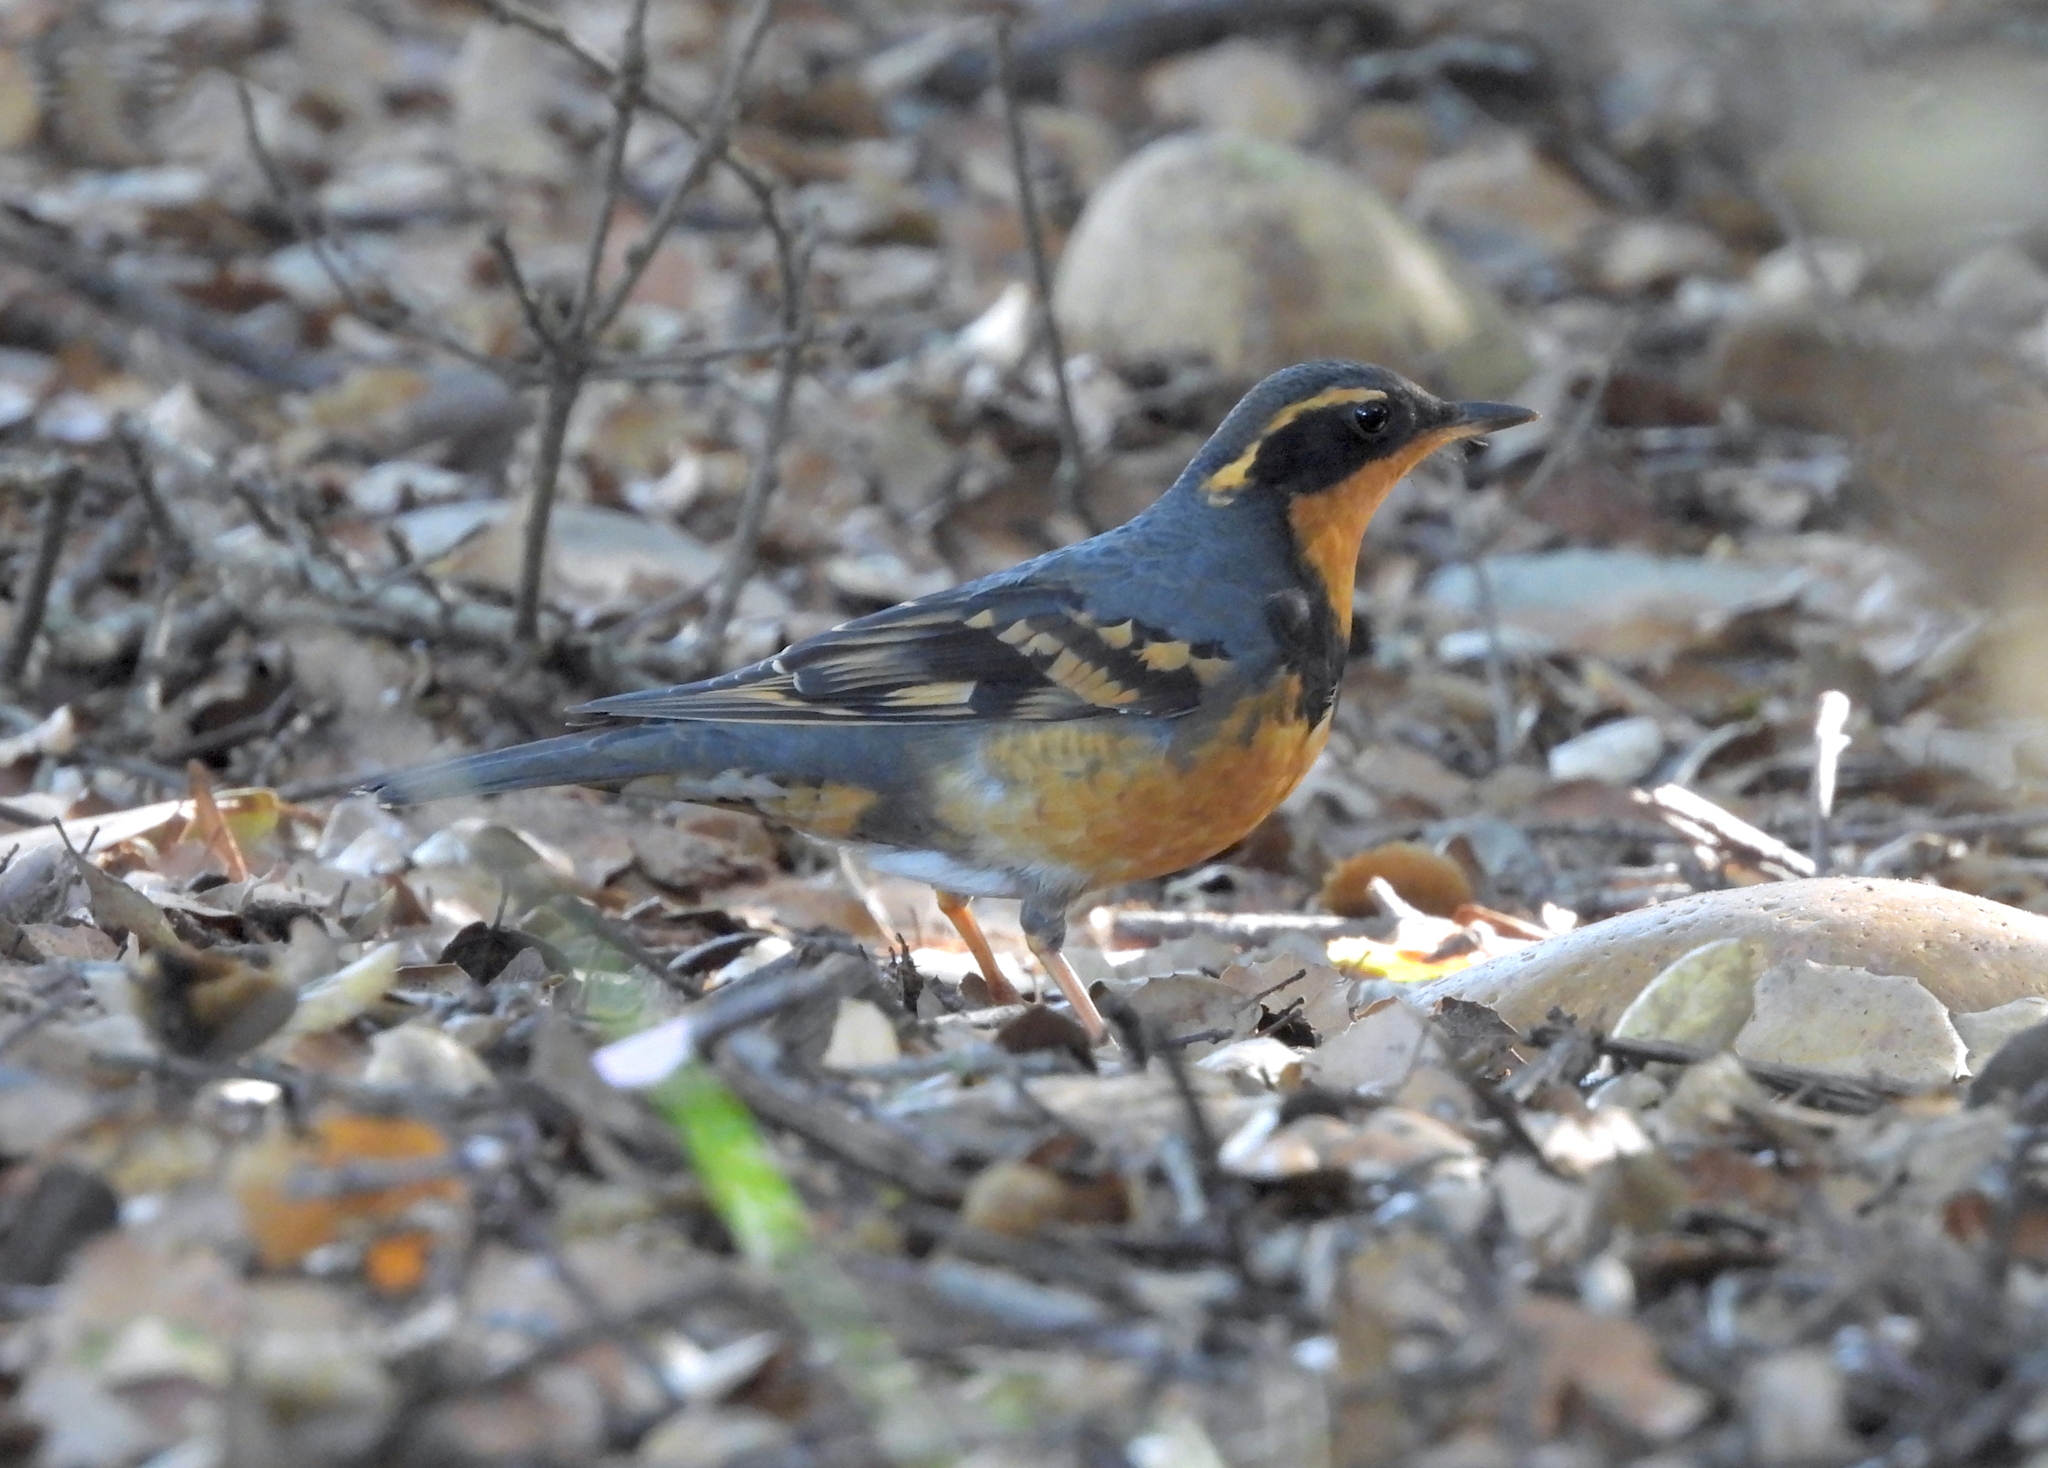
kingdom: Animalia
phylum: Chordata
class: Aves
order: Passeriformes
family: Turdidae
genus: Ixoreus
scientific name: Ixoreus naevius
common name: Varied thrush
